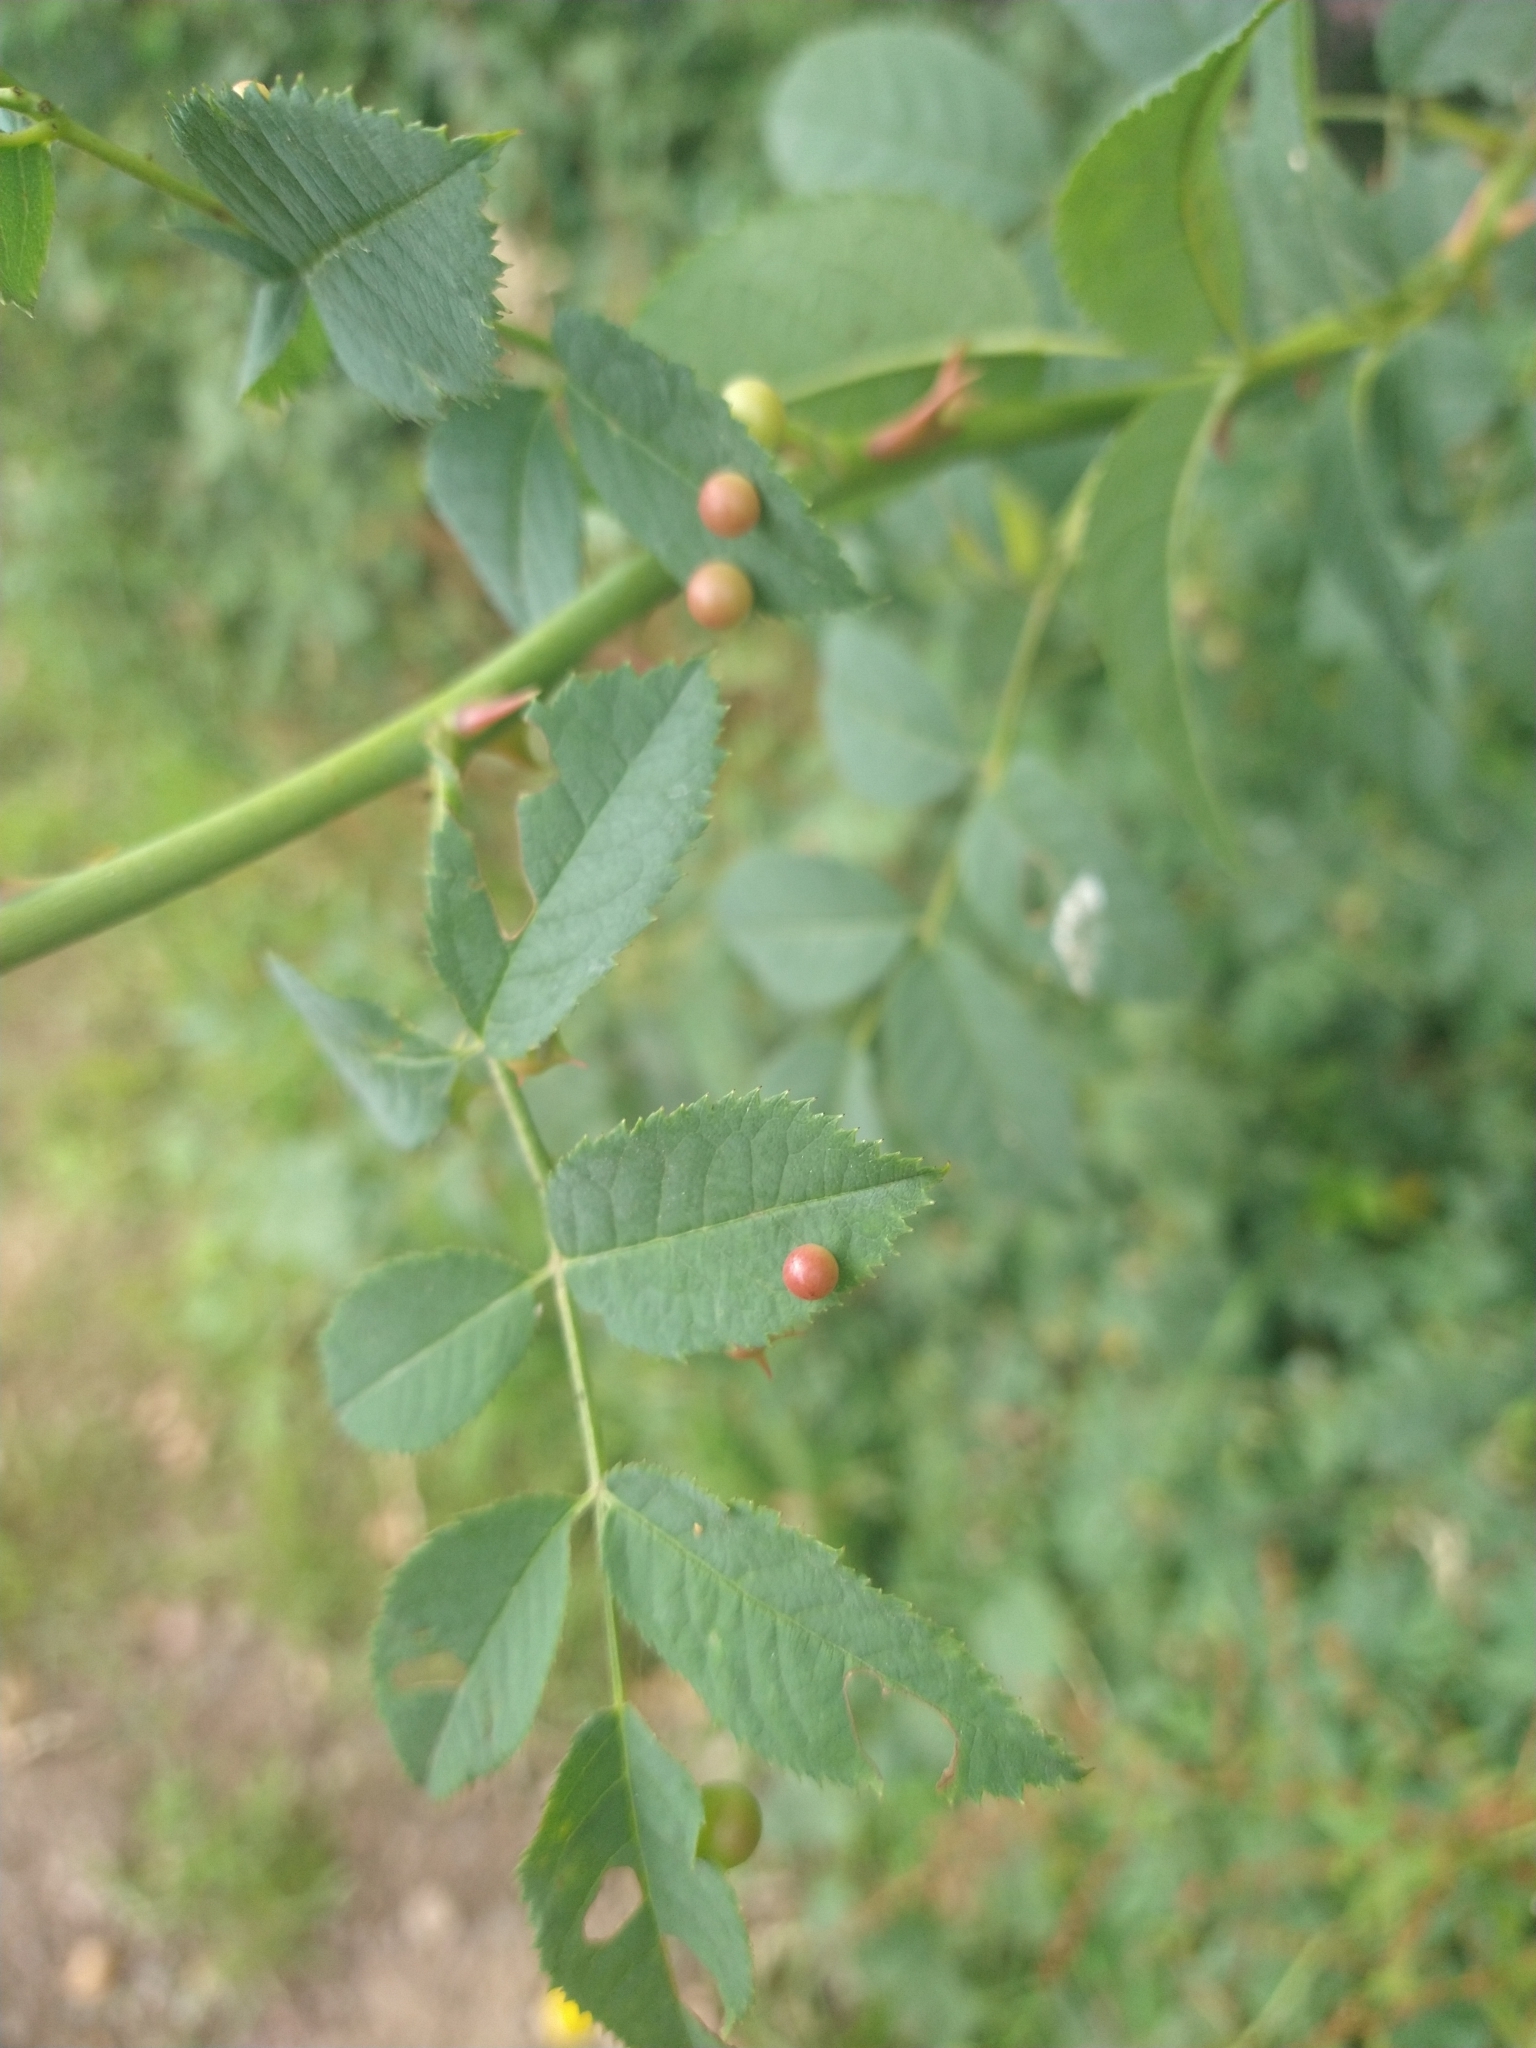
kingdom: Animalia
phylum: Arthropoda
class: Insecta
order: Hymenoptera
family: Cynipidae
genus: Diplolepis
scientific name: Diplolepis
